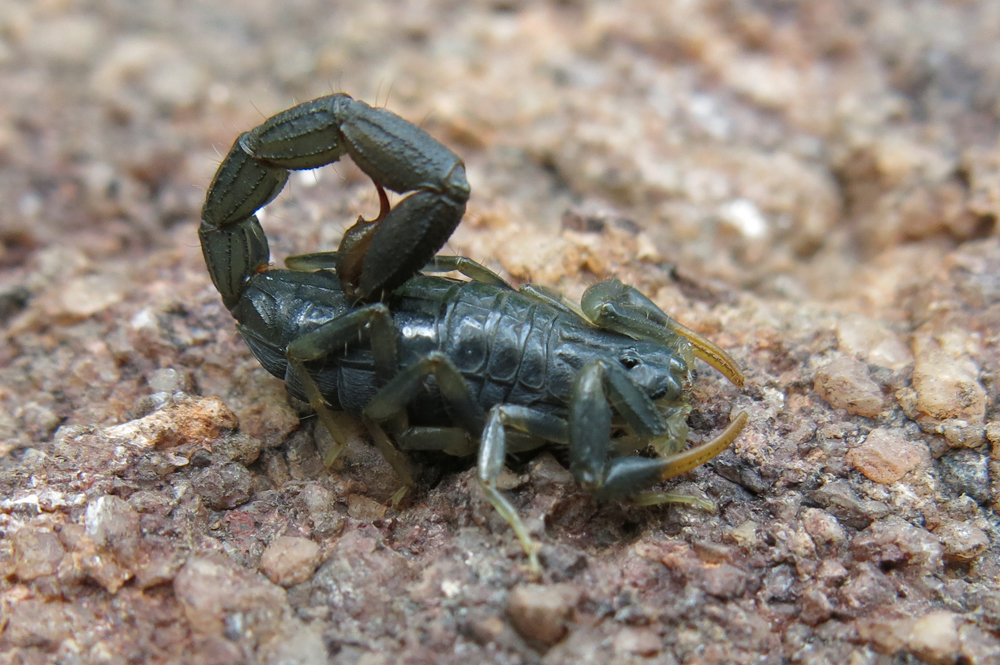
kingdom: Animalia
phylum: Arthropoda
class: Arachnida
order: Scorpiones
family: Buthidae
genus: Uroplectes
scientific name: Uroplectes flavoviridis
